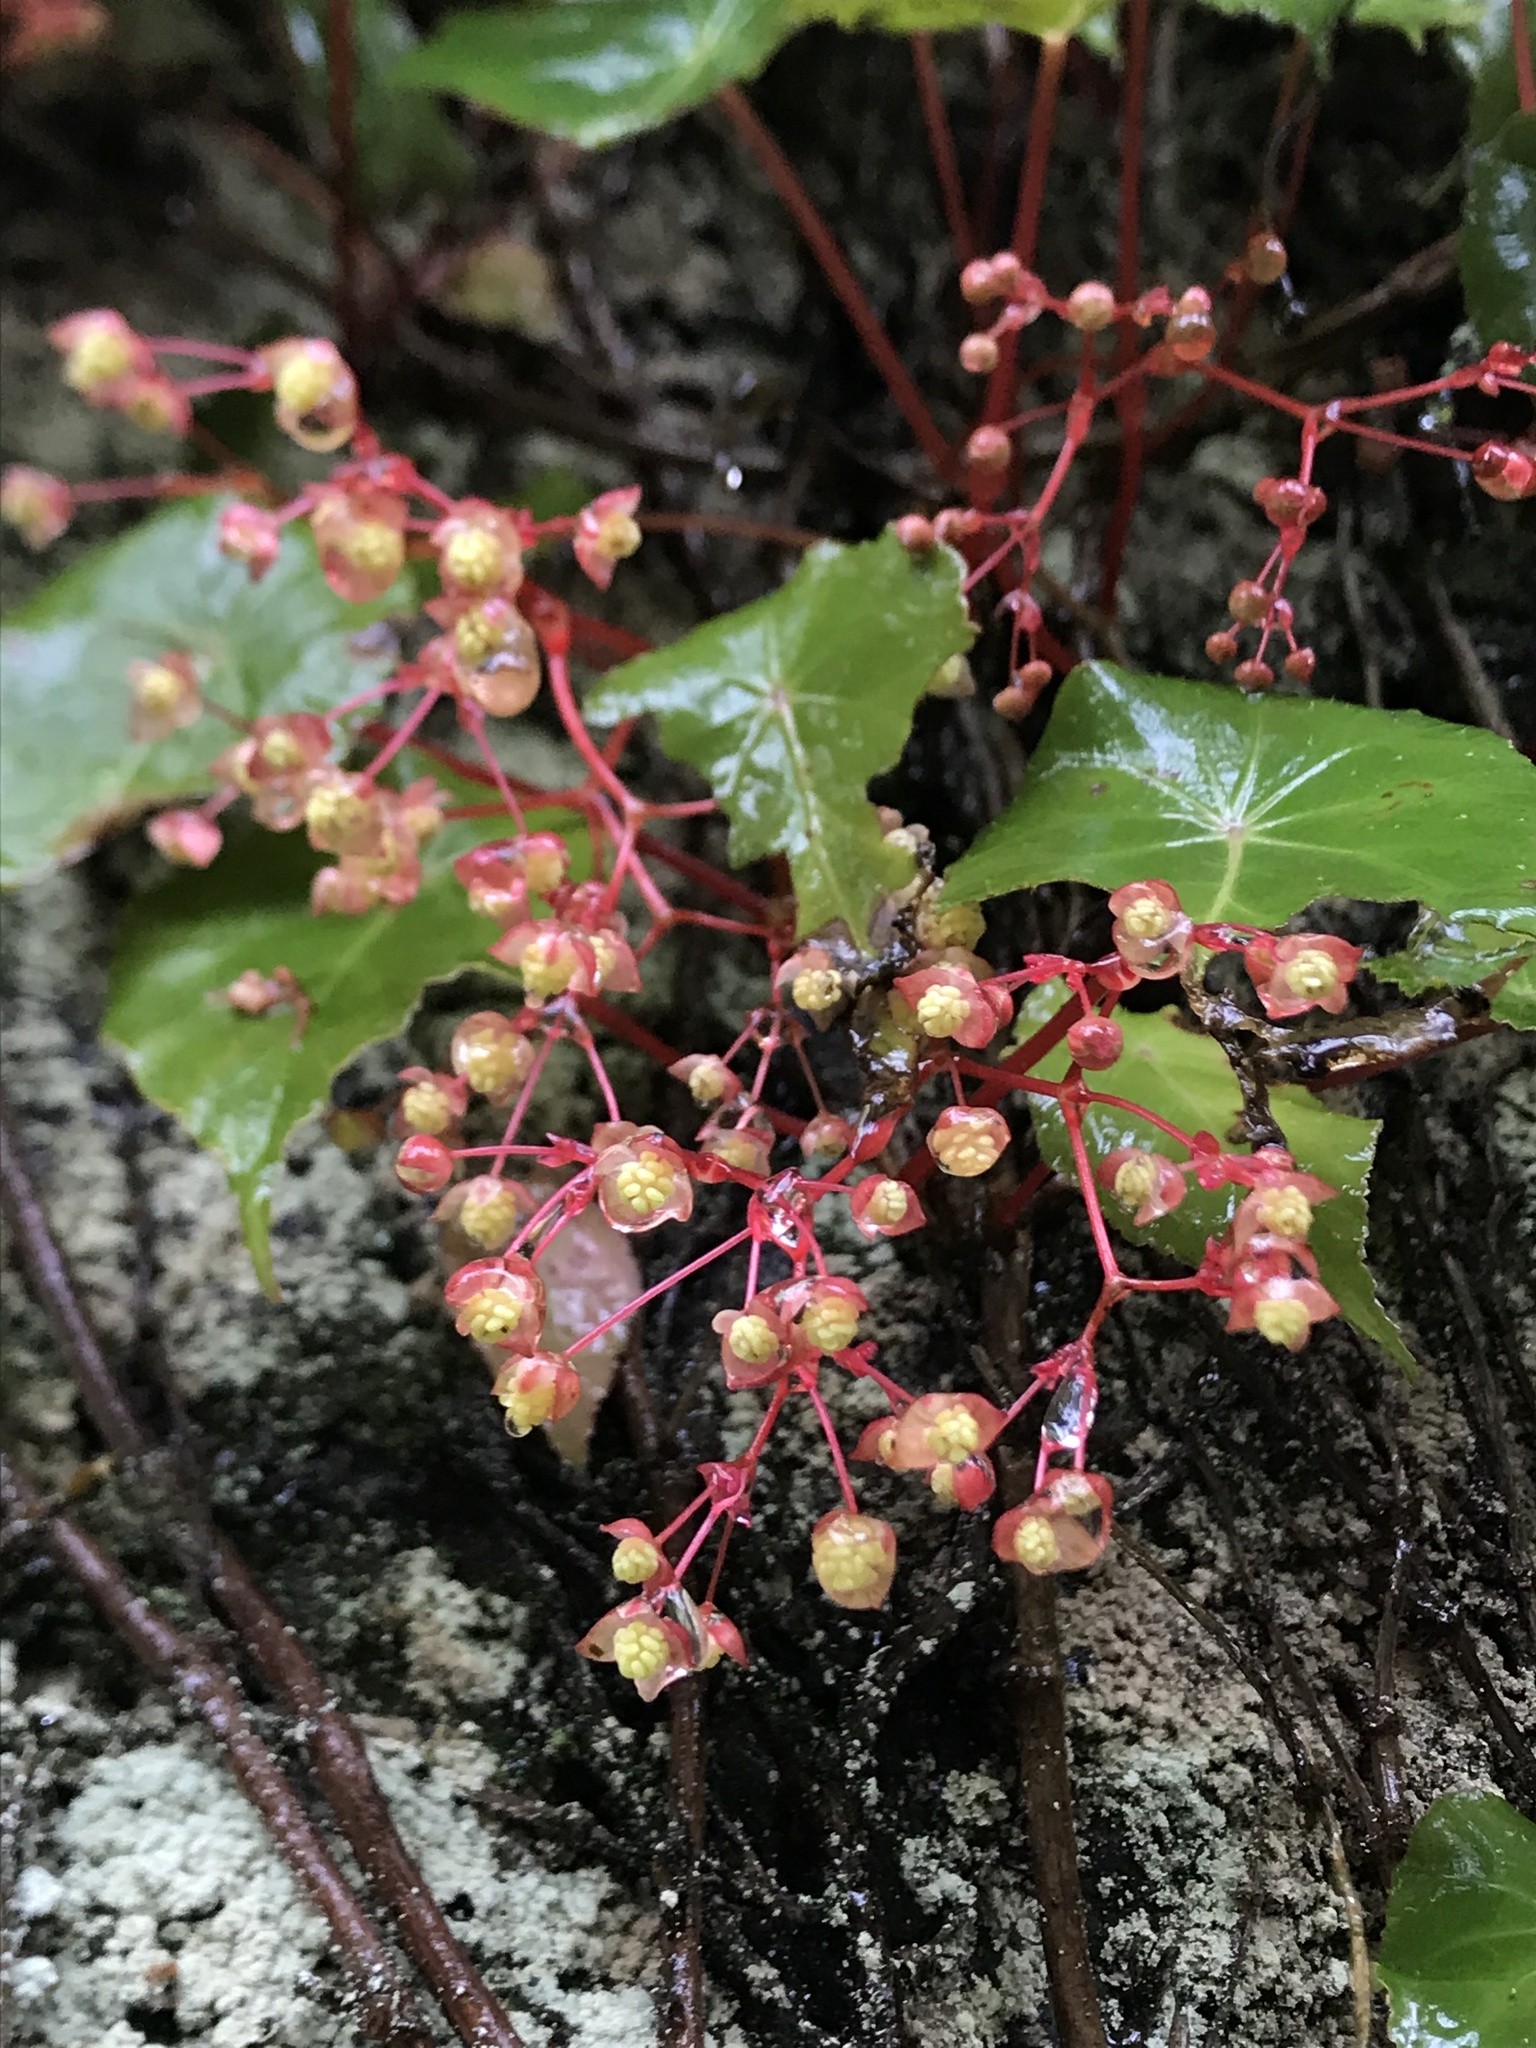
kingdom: Plantae
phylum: Tracheophyta
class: Magnoliopsida
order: Cucurbitales
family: Begoniaceae
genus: Begonia
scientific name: Begonia tropaeolifolia
